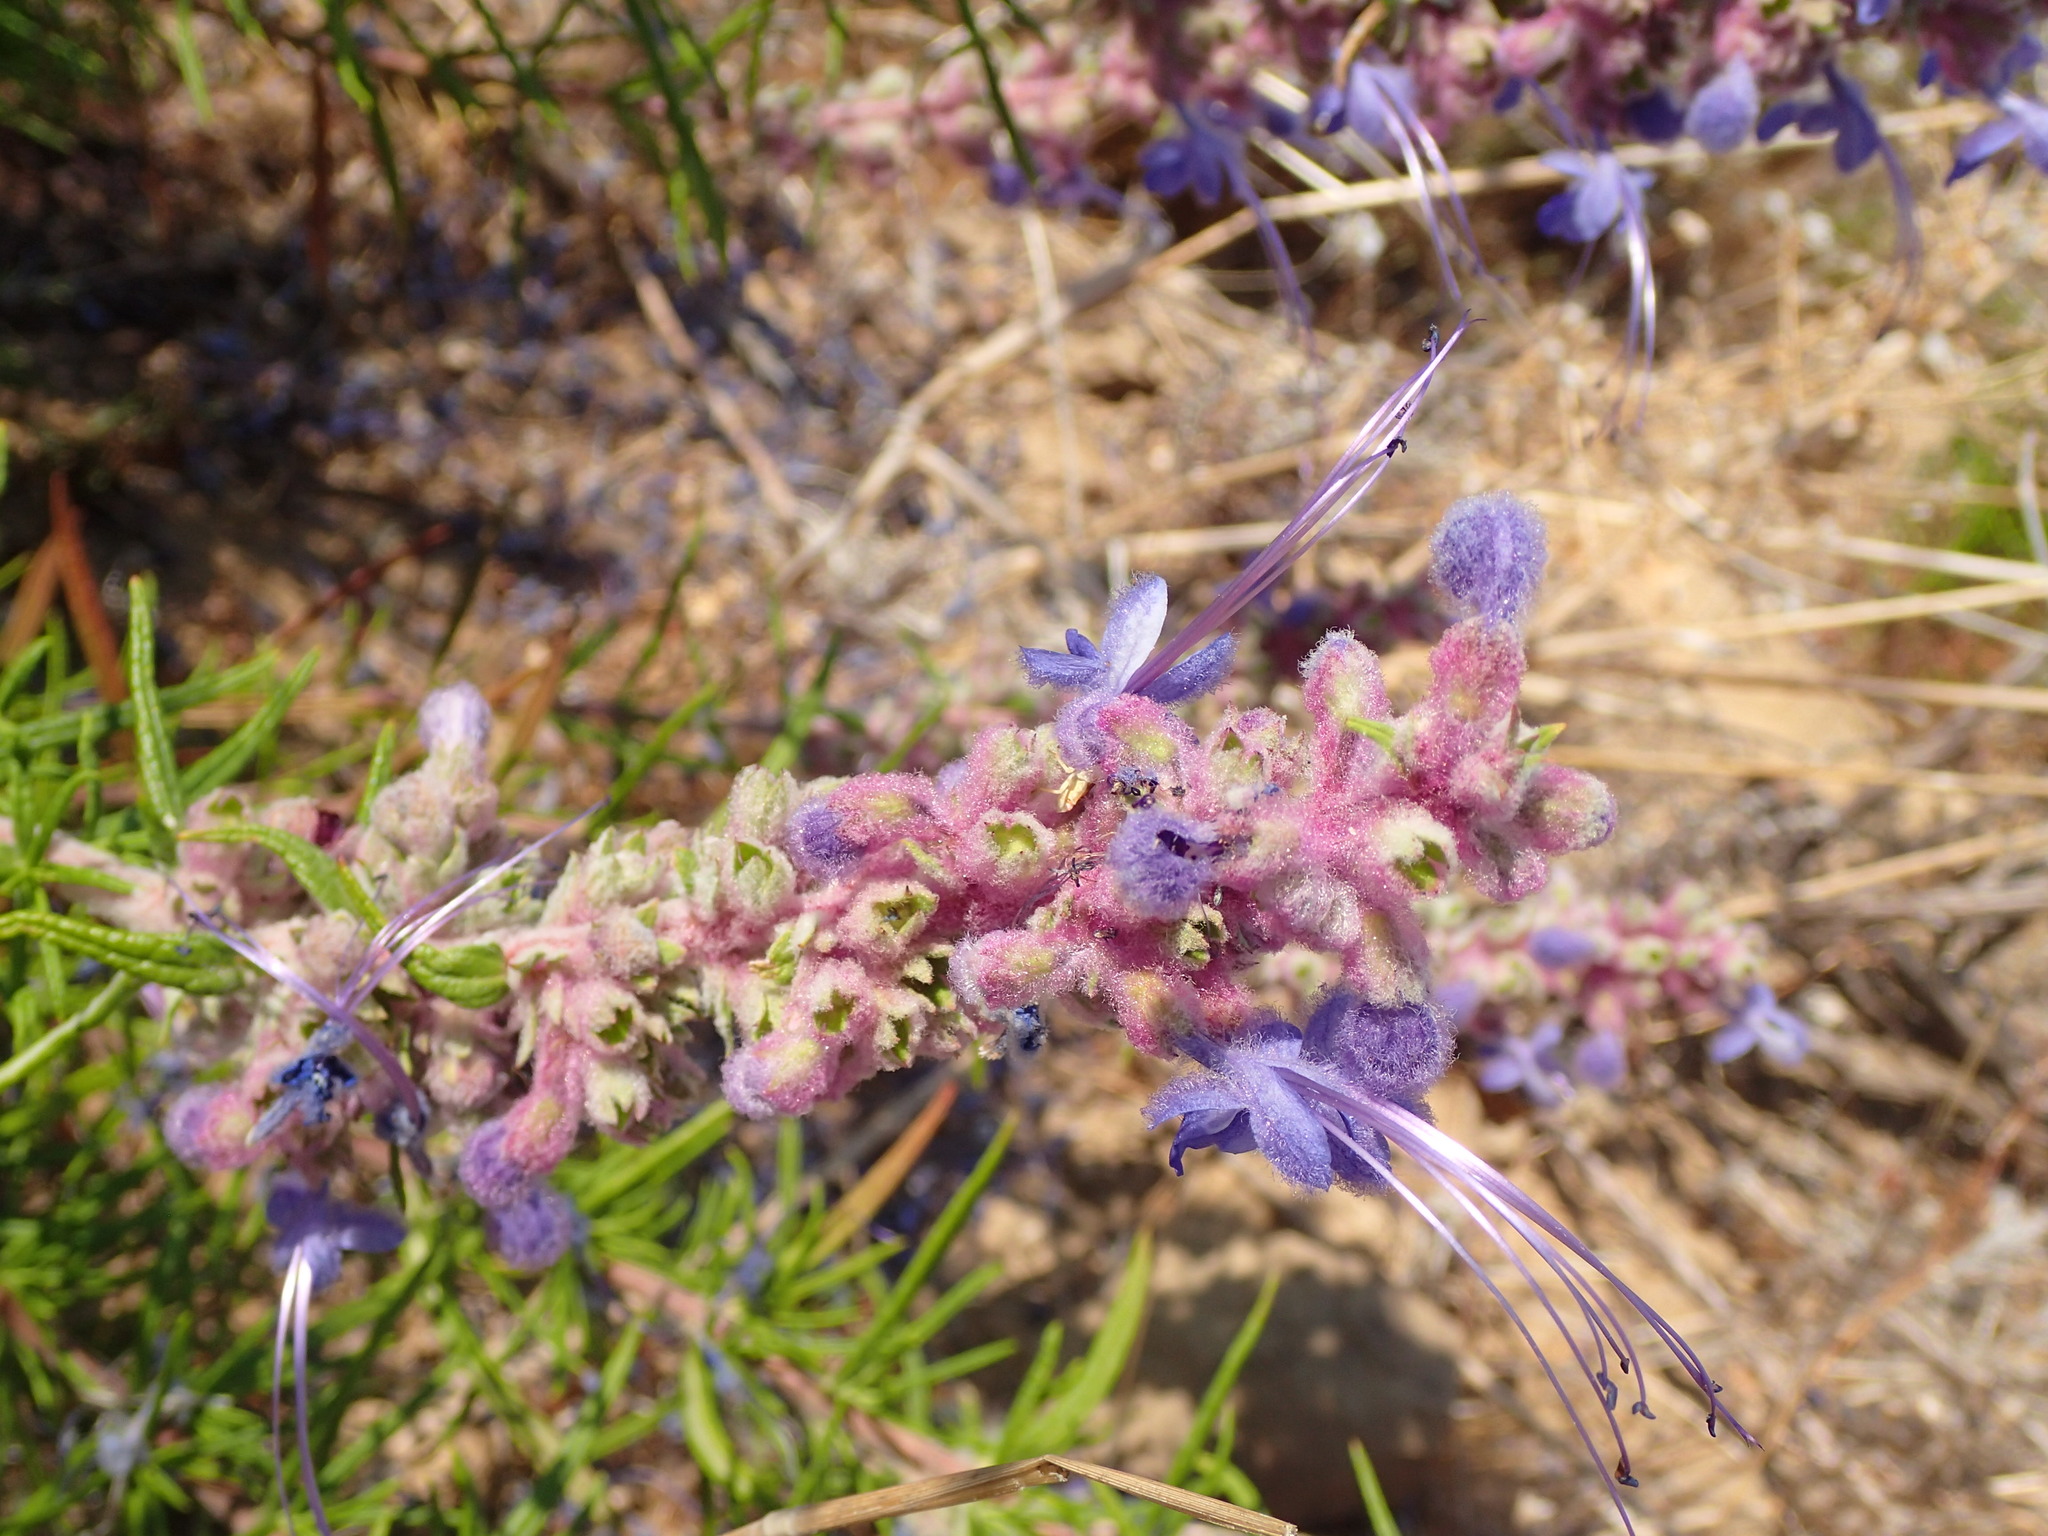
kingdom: Plantae
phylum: Tracheophyta
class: Magnoliopsida
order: Lamiales
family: Lamiaceae
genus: Trichostema
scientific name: Trichostema lanatum
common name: Woolly bluecurls
